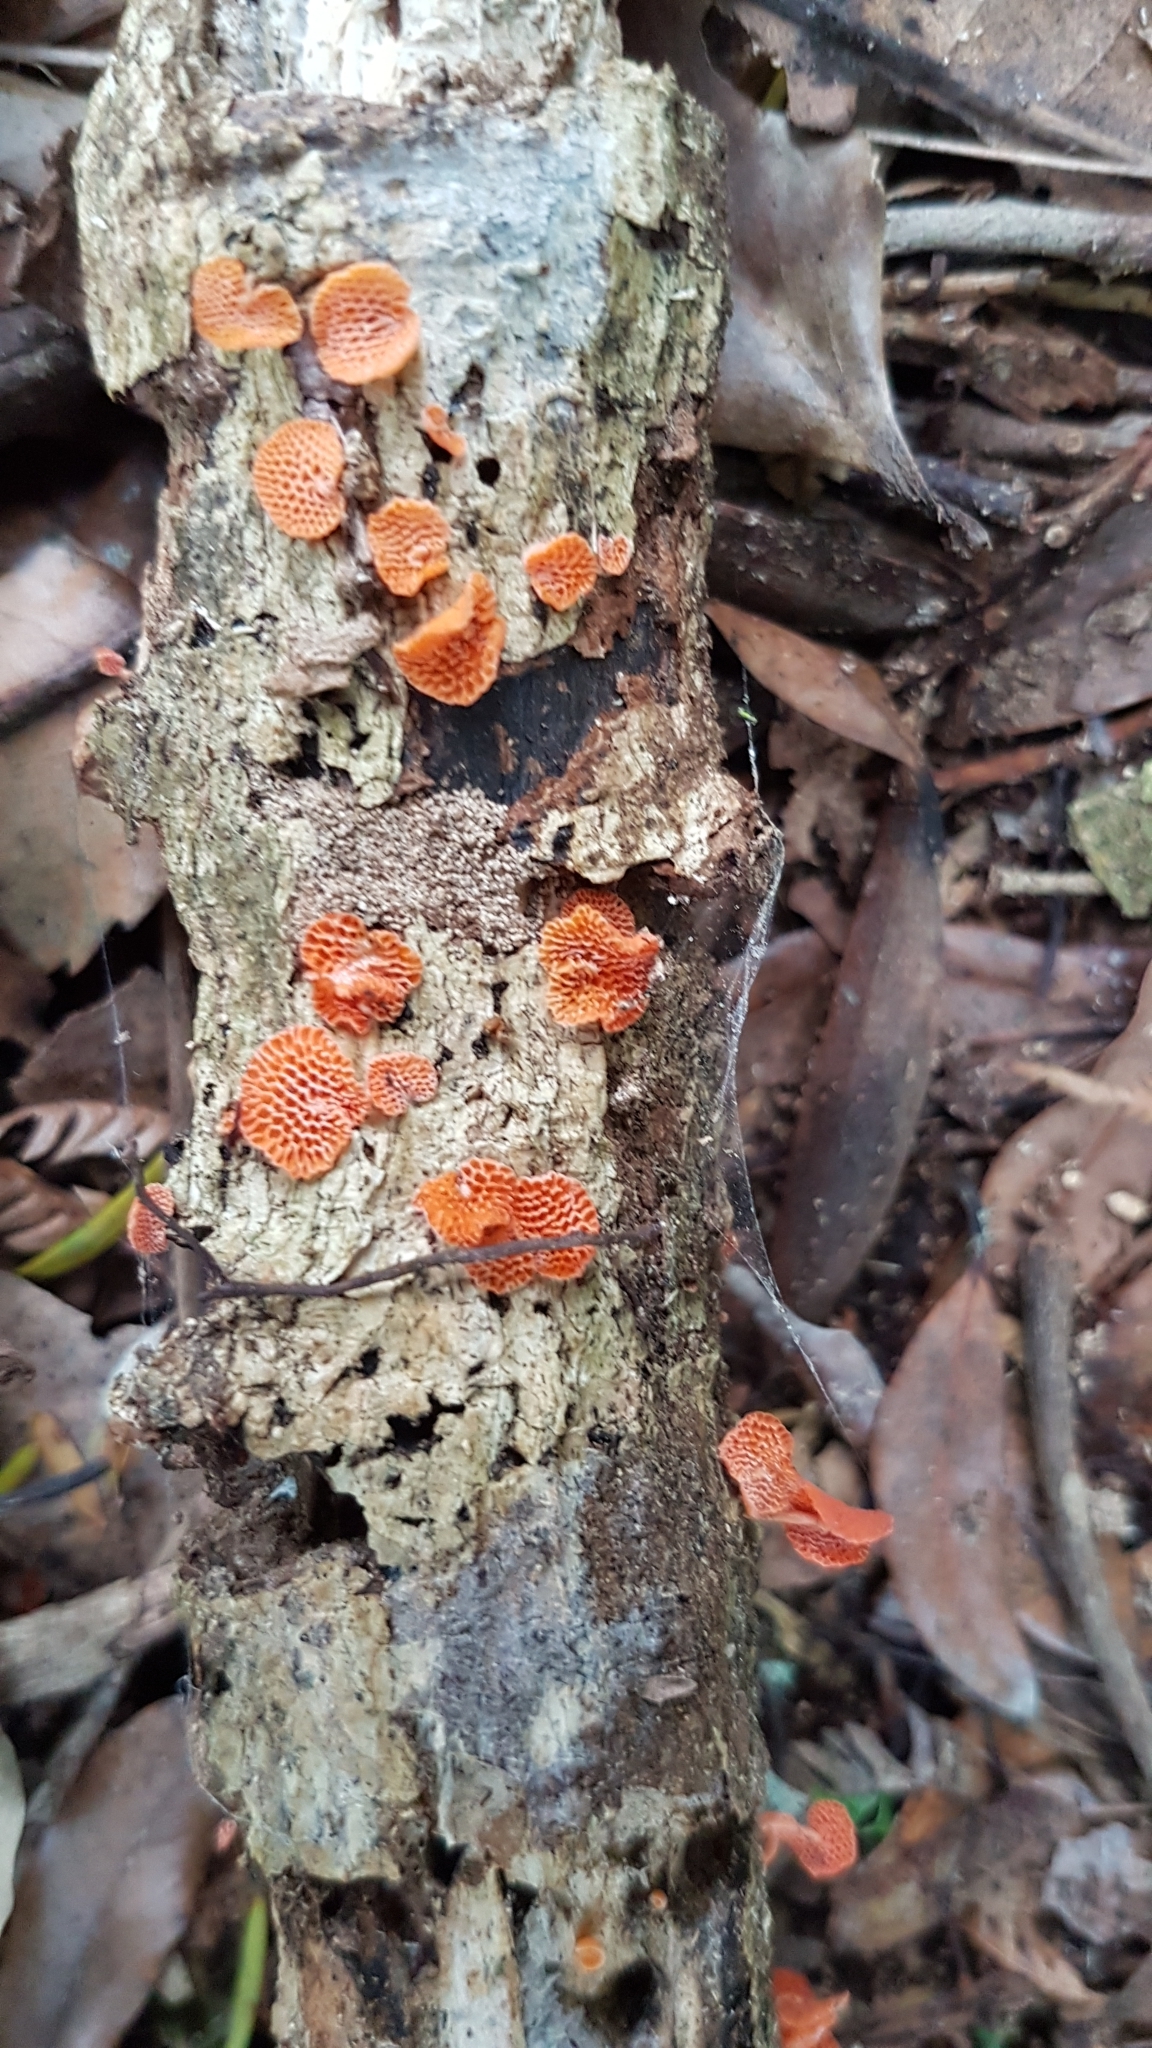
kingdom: Fungi
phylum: Basidiomycota
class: Agaricomycetes
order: Agaricales
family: Mycenaceae
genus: Favolaschia
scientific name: Favolaschia claudopus
